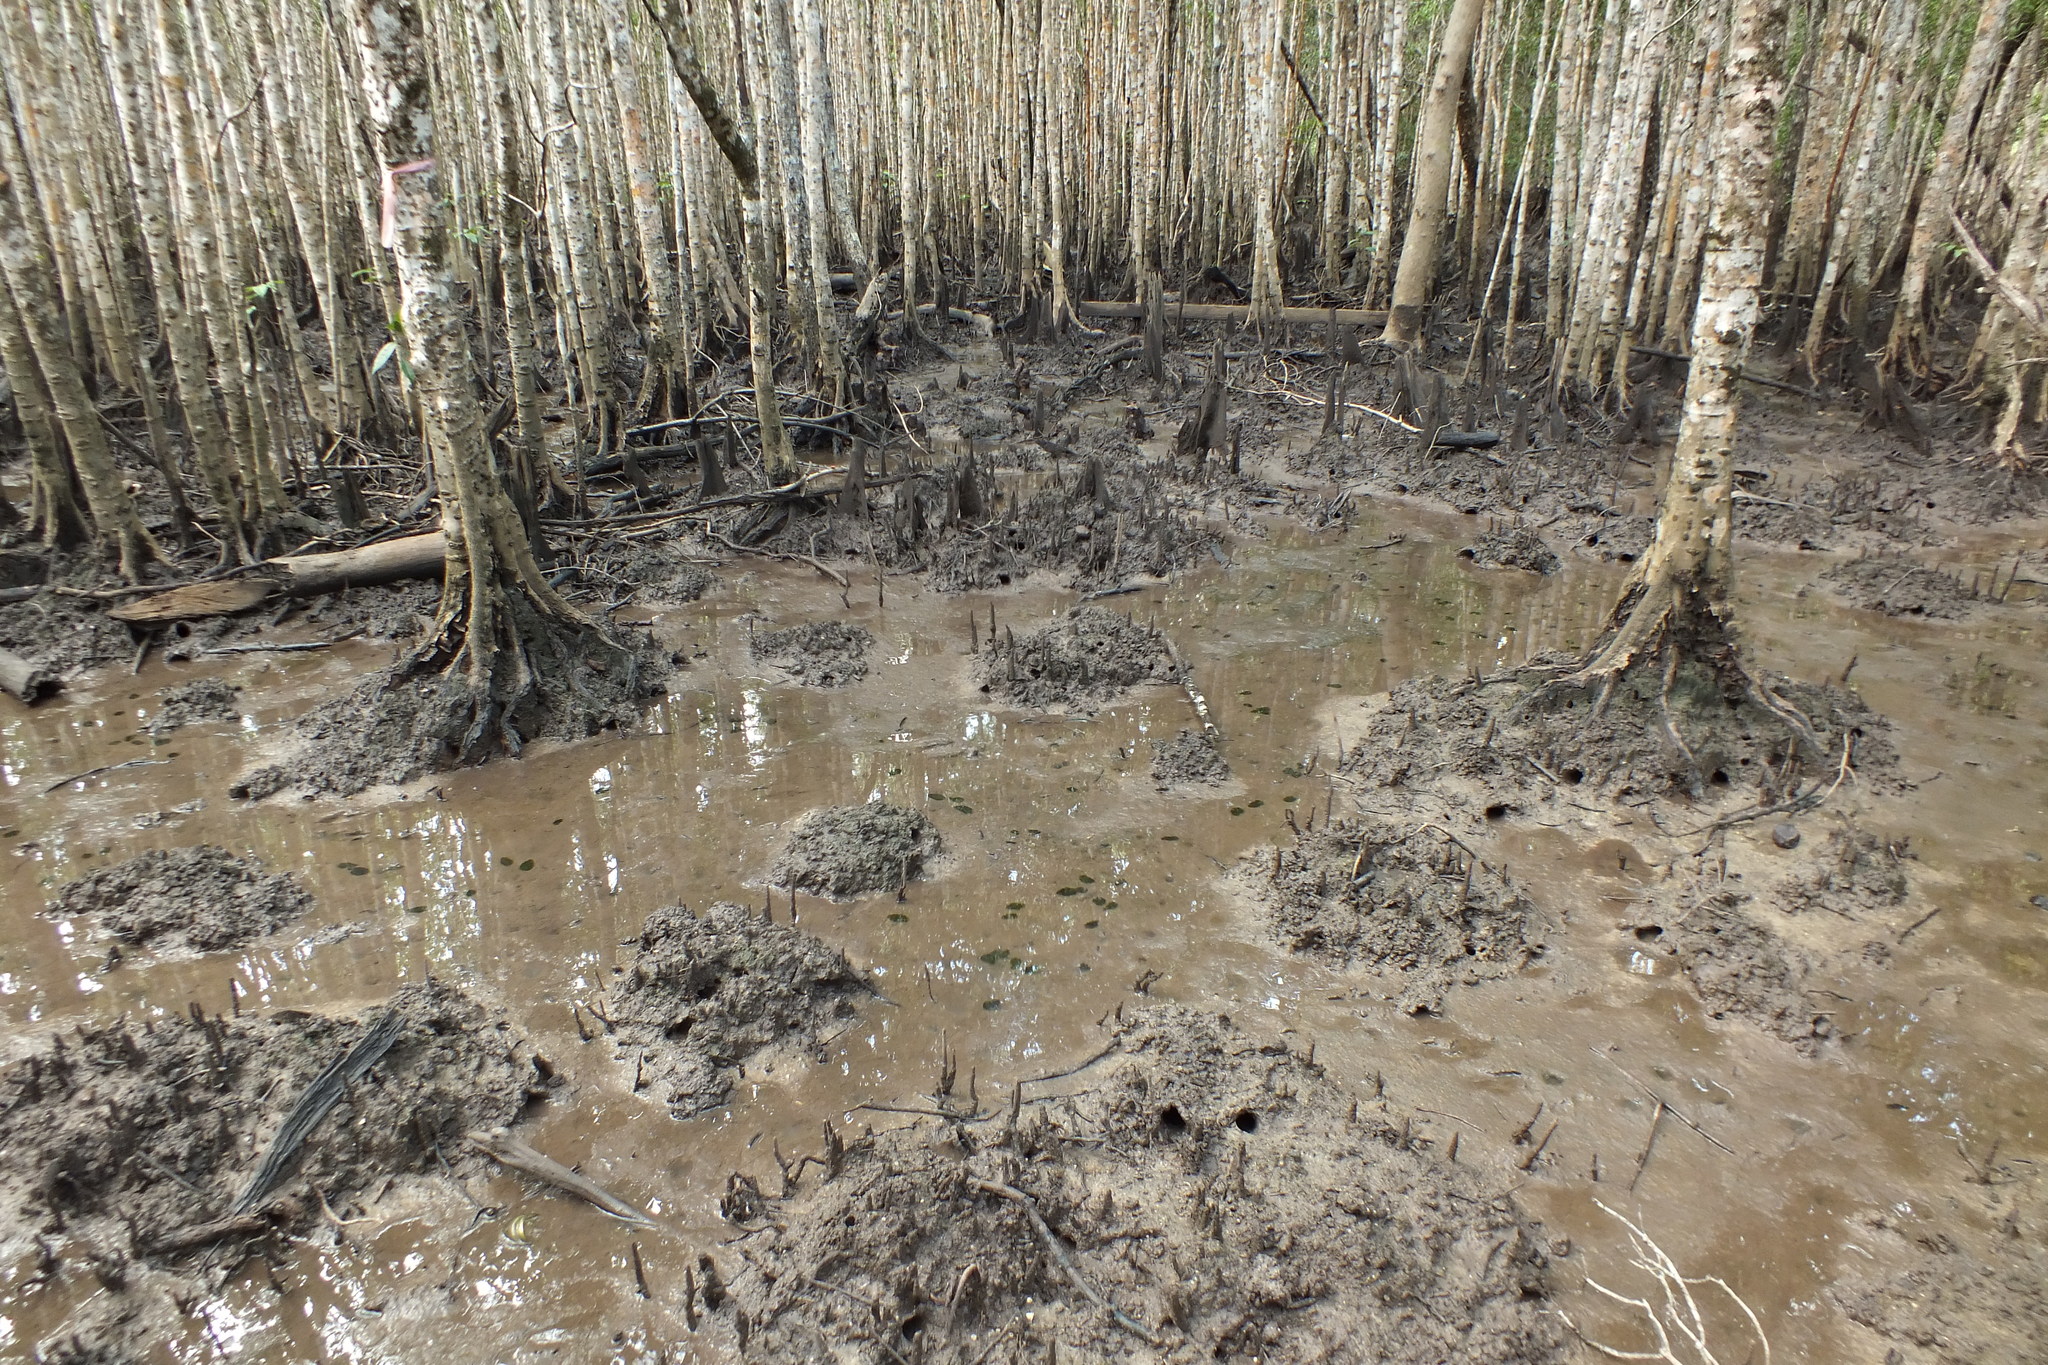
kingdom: Animalia
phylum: Mollusca
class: Gastropoda
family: Plakobranchidae
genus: Elysia
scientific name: Elysia bangtawaensis
